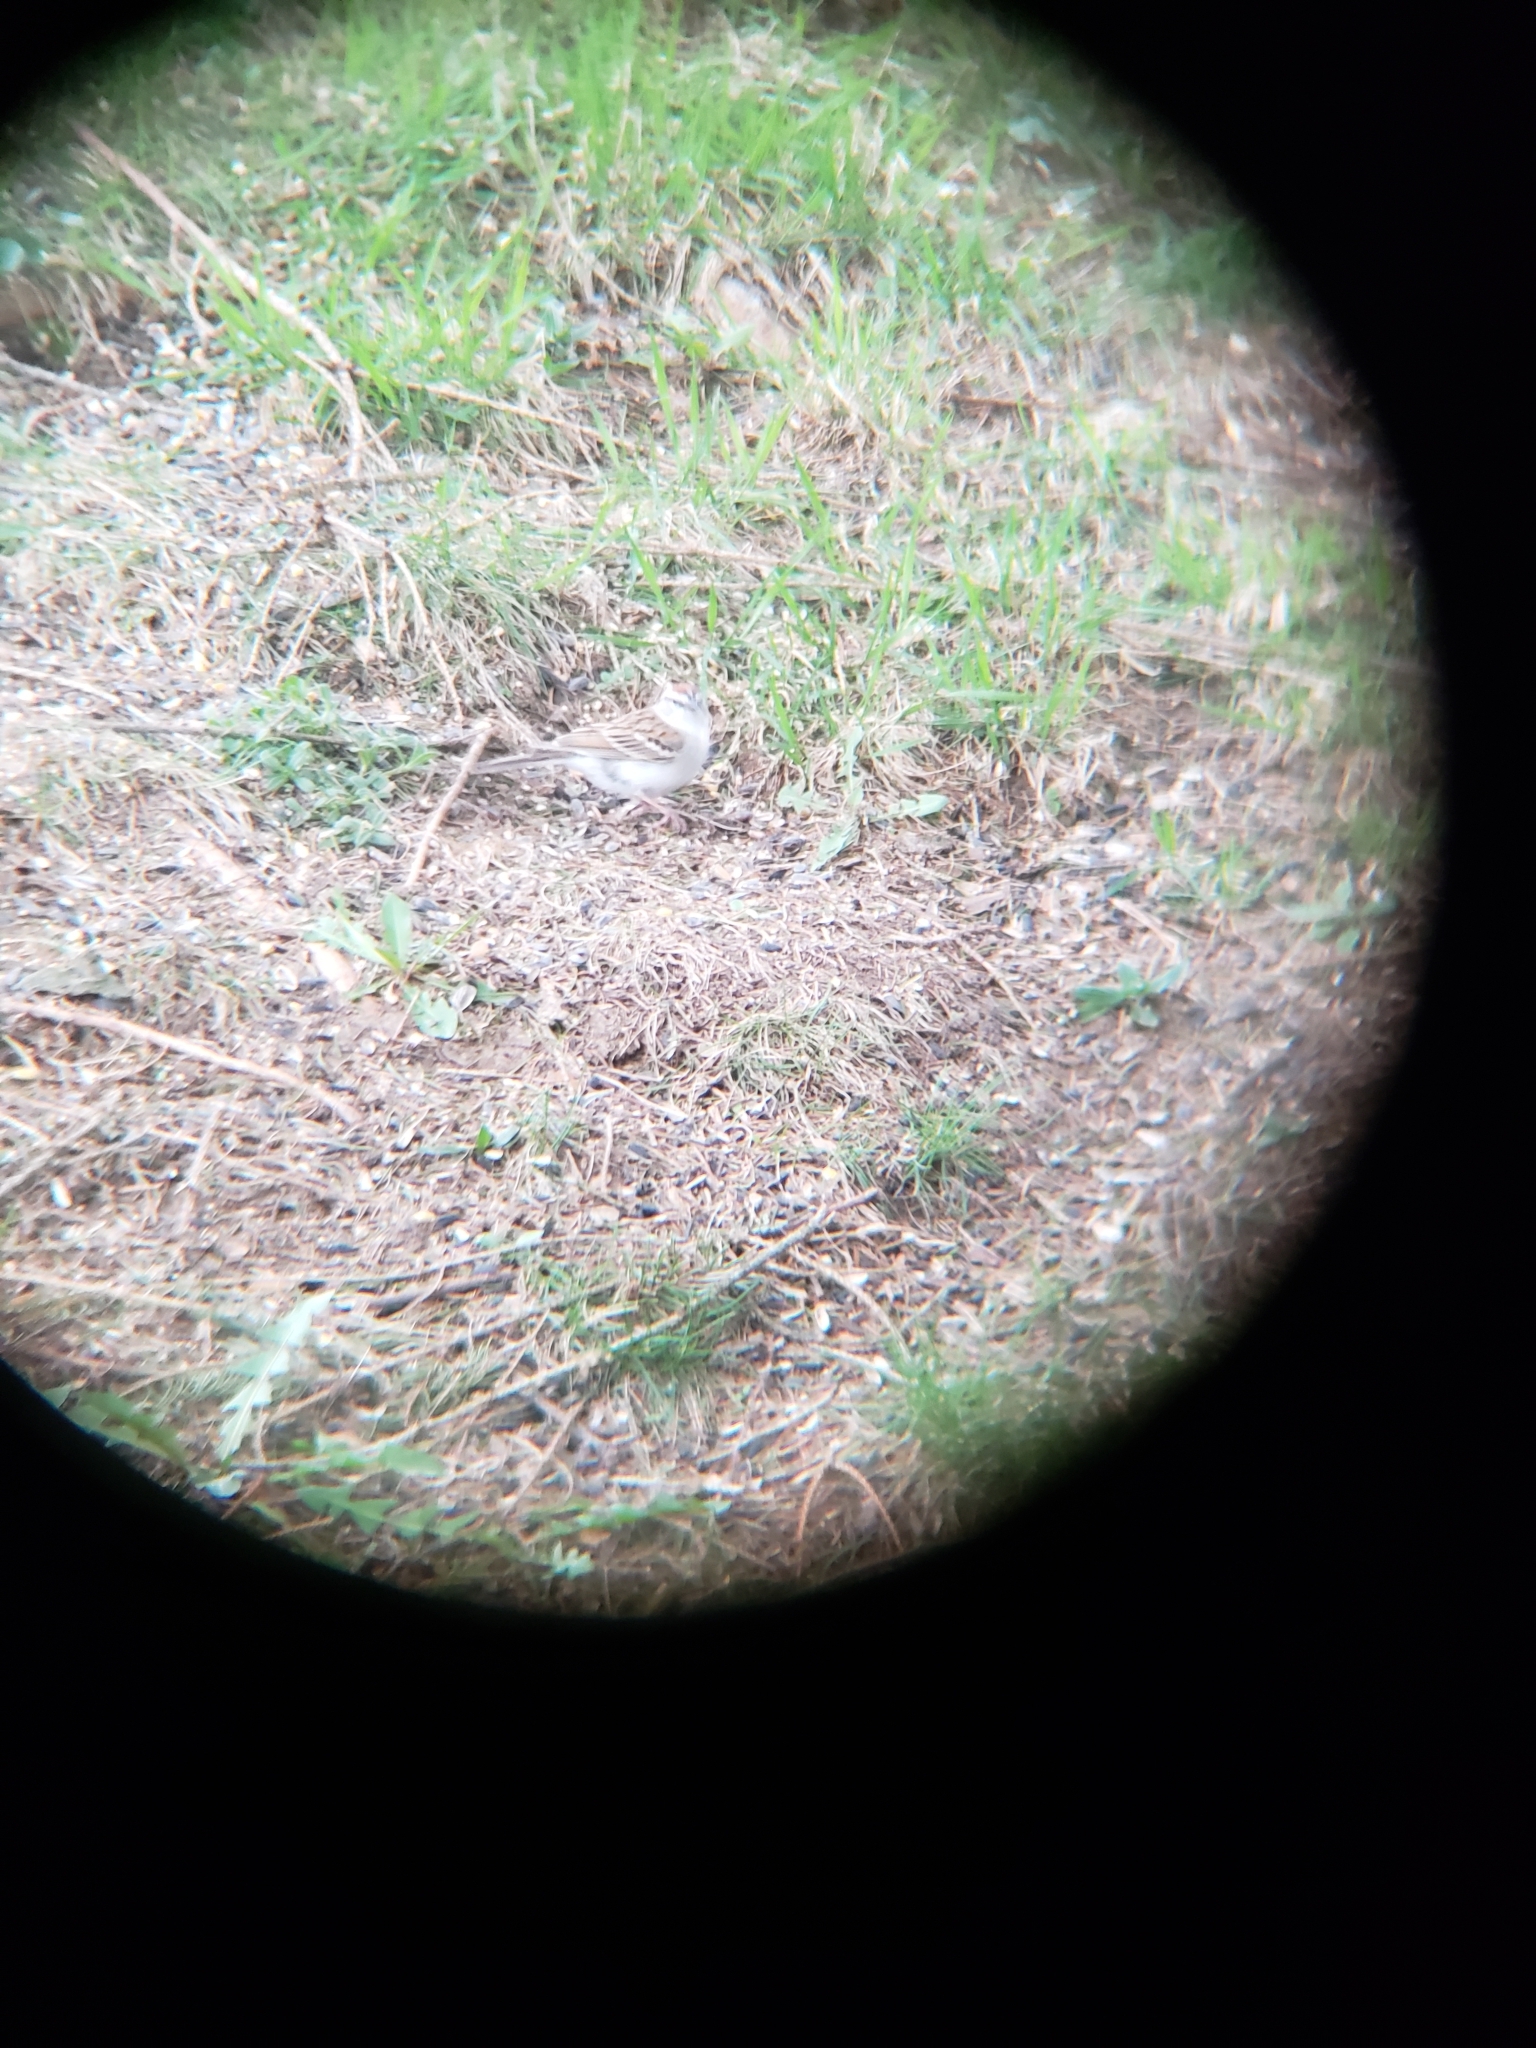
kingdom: Animalia
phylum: Chordata
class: Aves
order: Passeriformes
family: Passerellidae
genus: Spizella
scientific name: Spizella passerina
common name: Chipping sparrow
